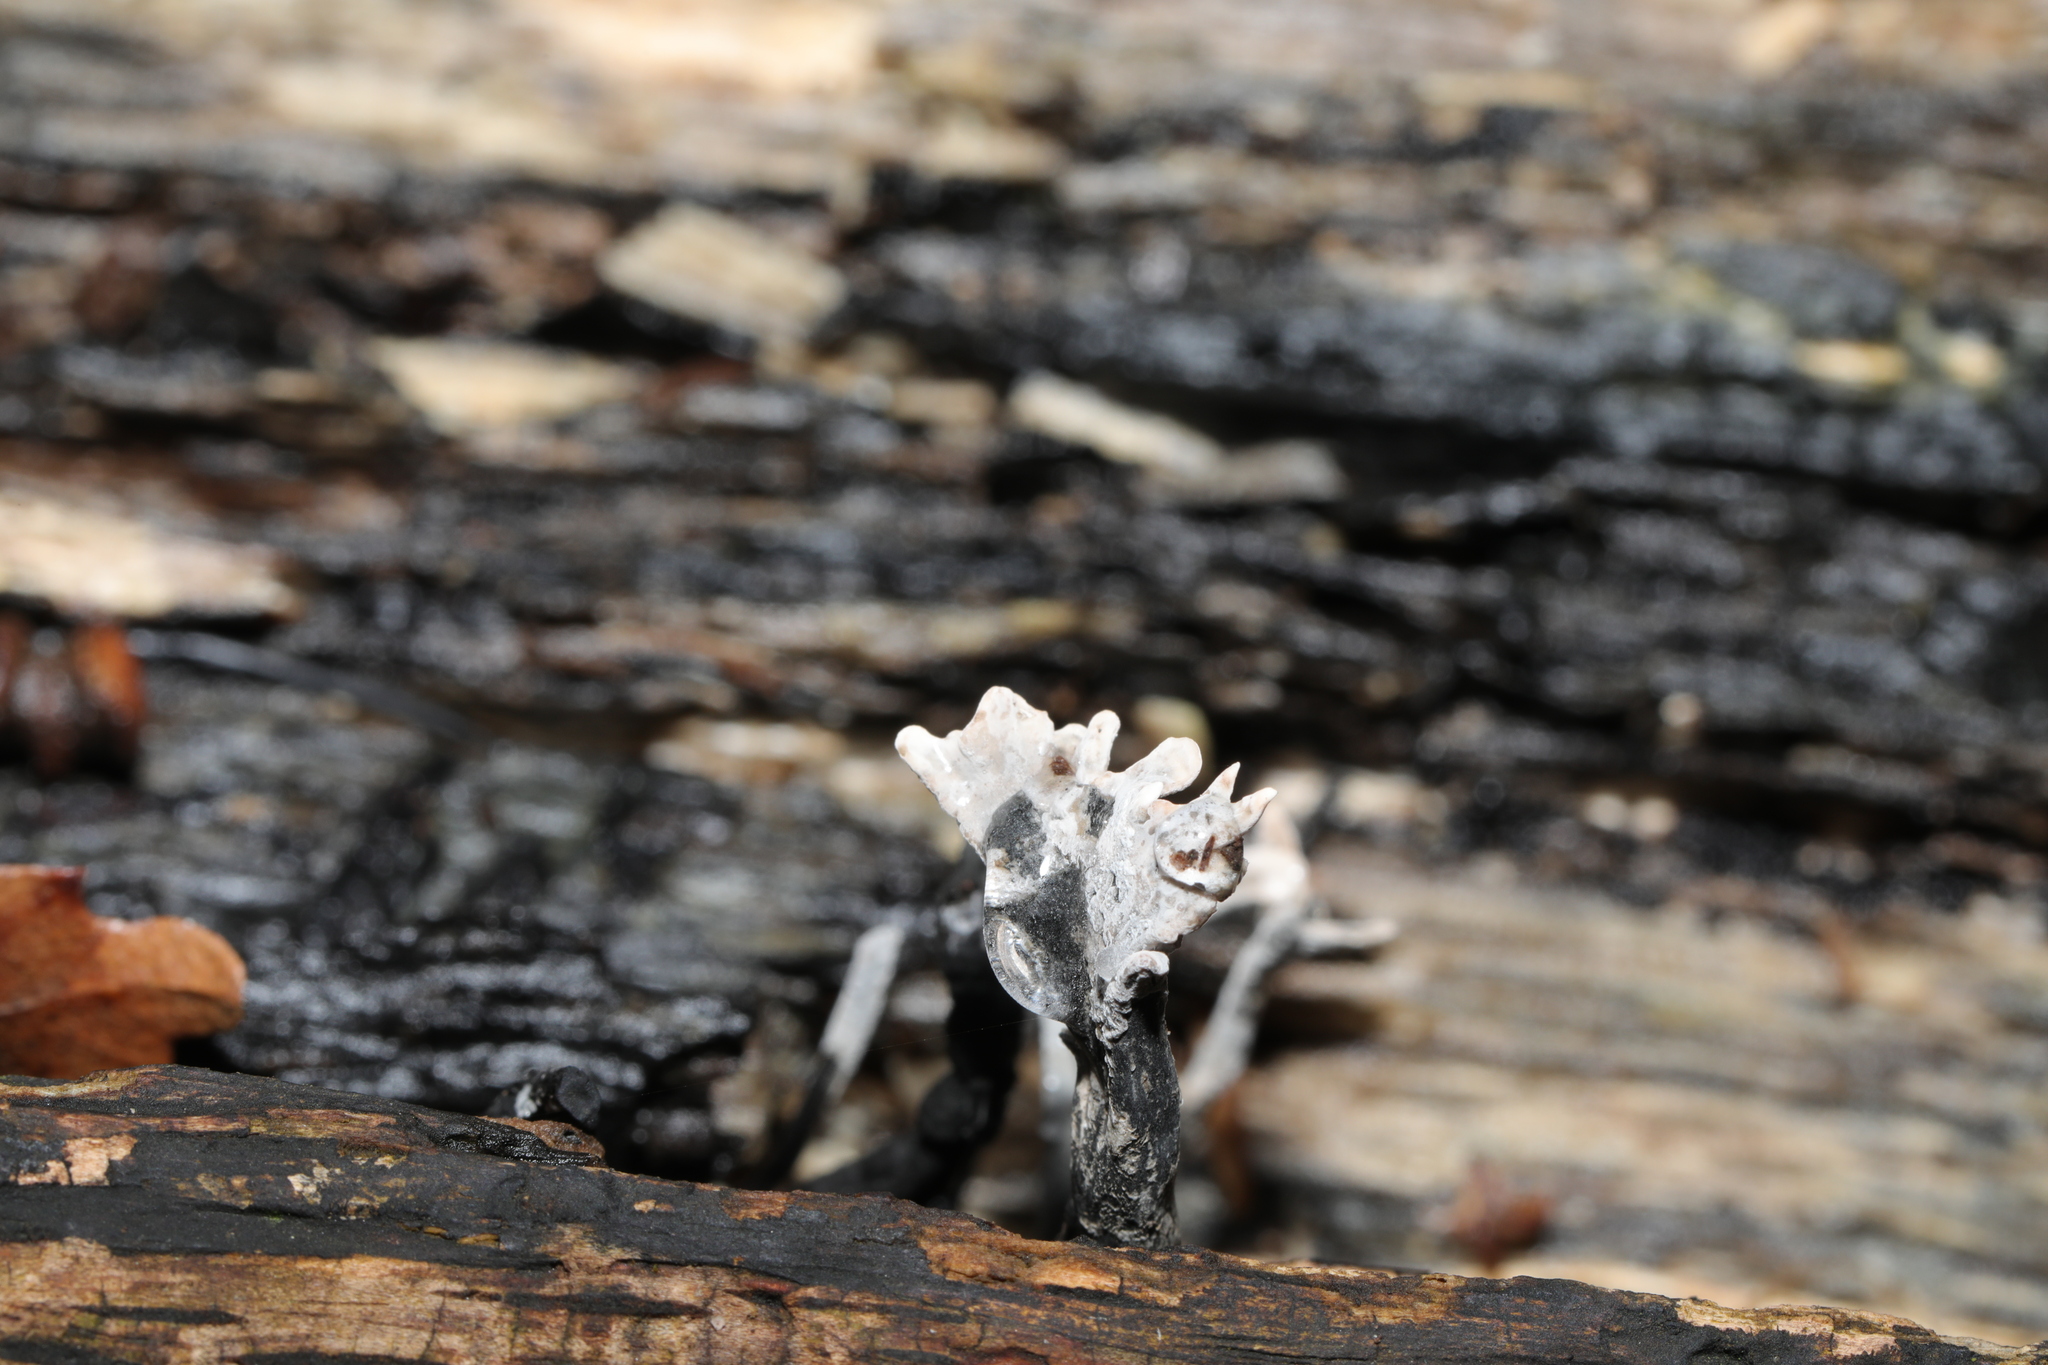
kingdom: Fungi
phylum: Ascomycota
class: Sordariomycetes
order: Xylariales
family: Xylariaceae
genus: Xylaria
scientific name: Xylaria hypoxylon
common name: Candle-snuff fungus
